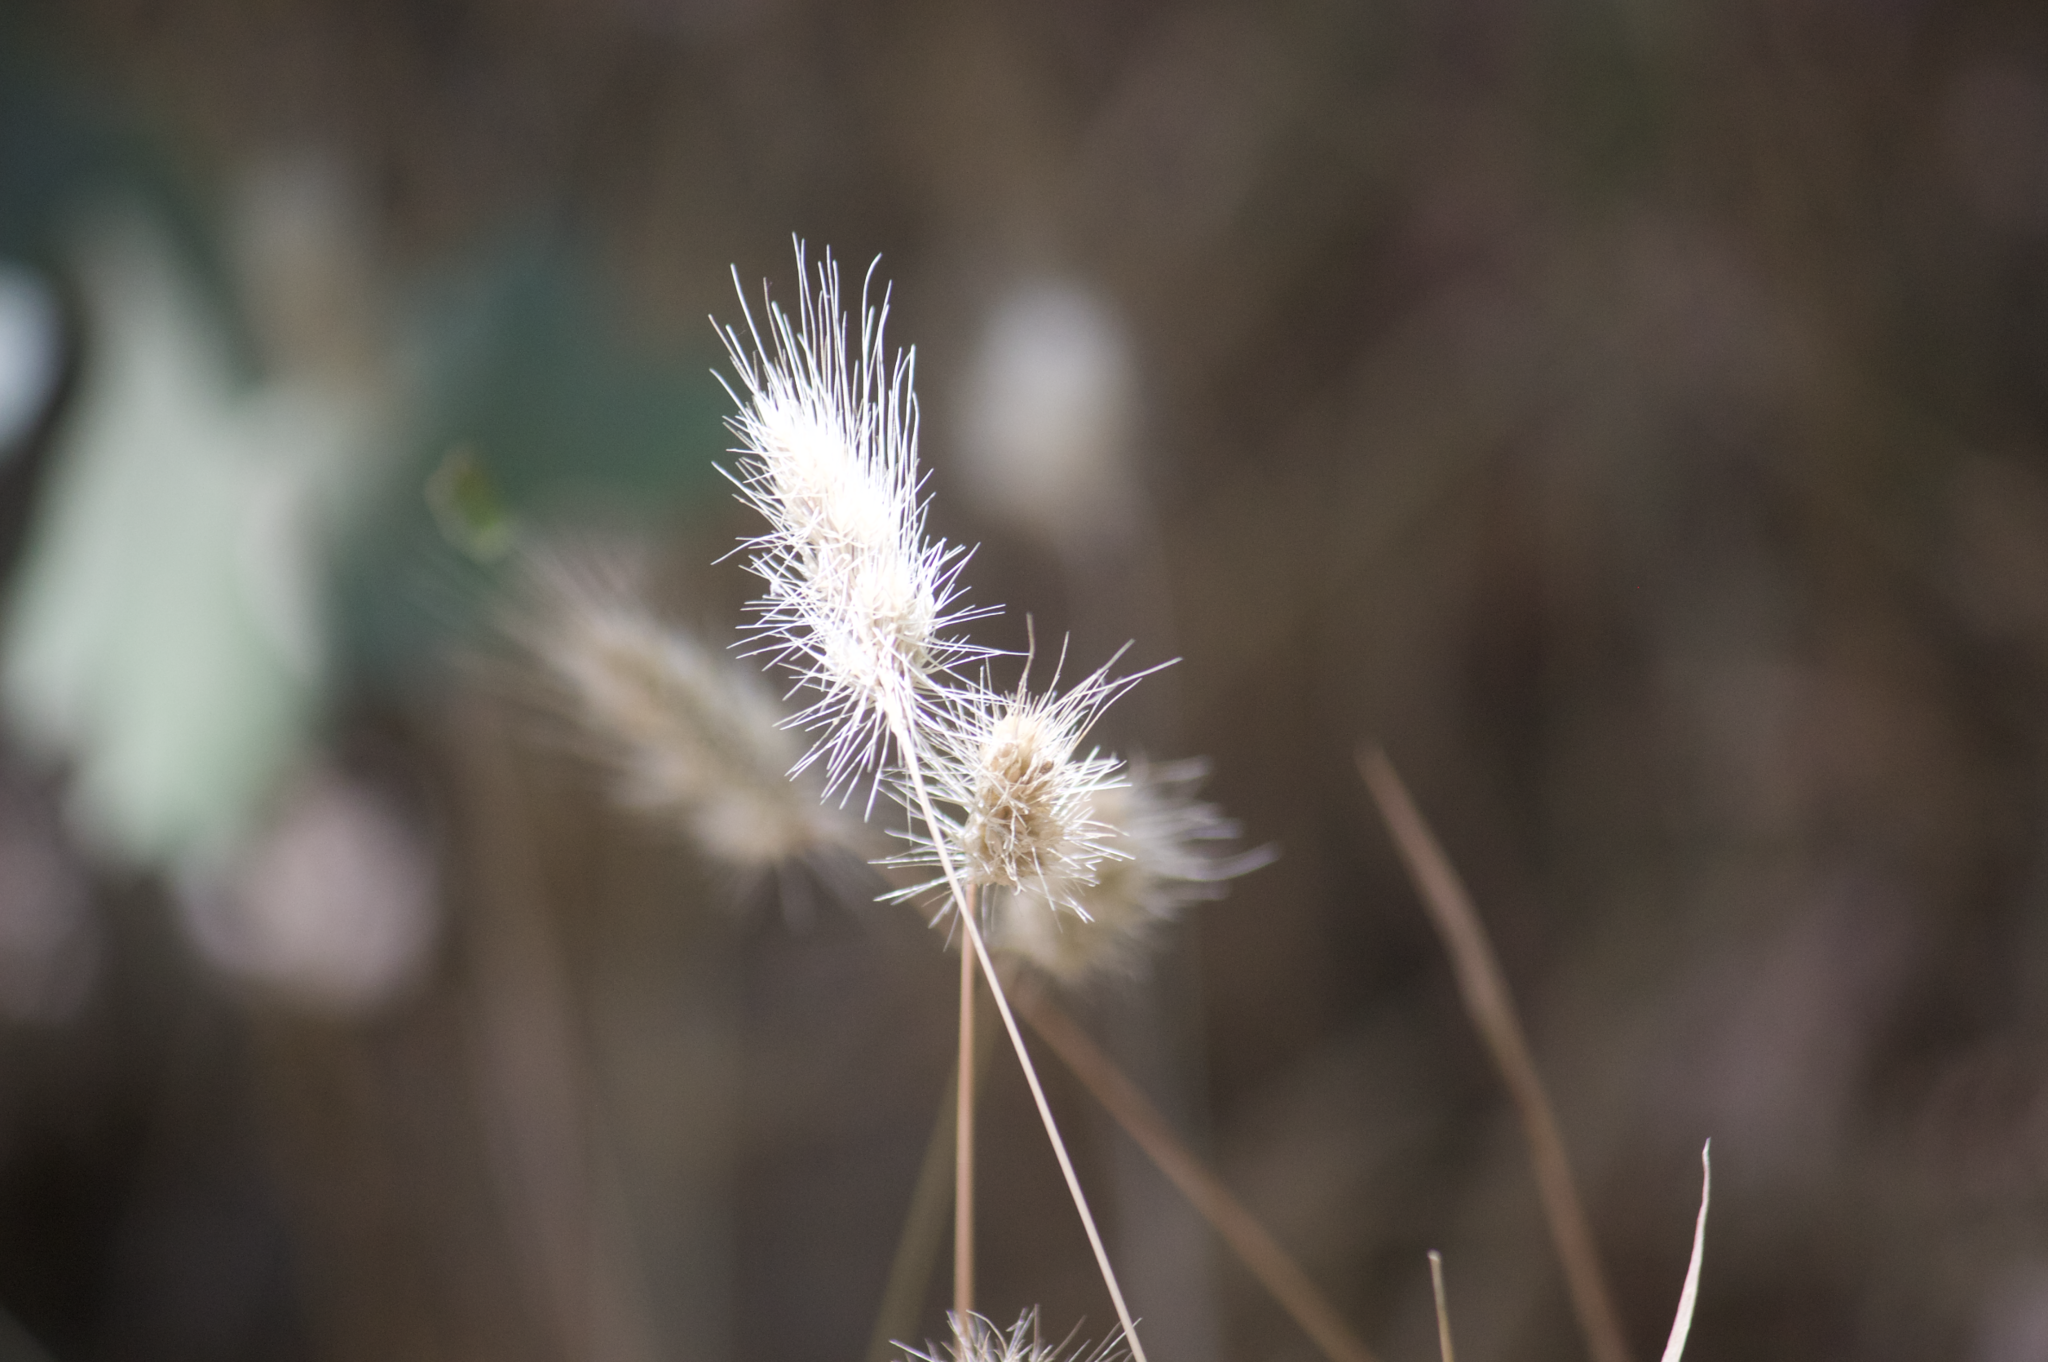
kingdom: Plantae
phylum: Tracheophyta
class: Liliopsida
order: Poales
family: Poaceae
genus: Cynosurus
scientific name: Cynosurus echinatus
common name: Rough dog's-tail
